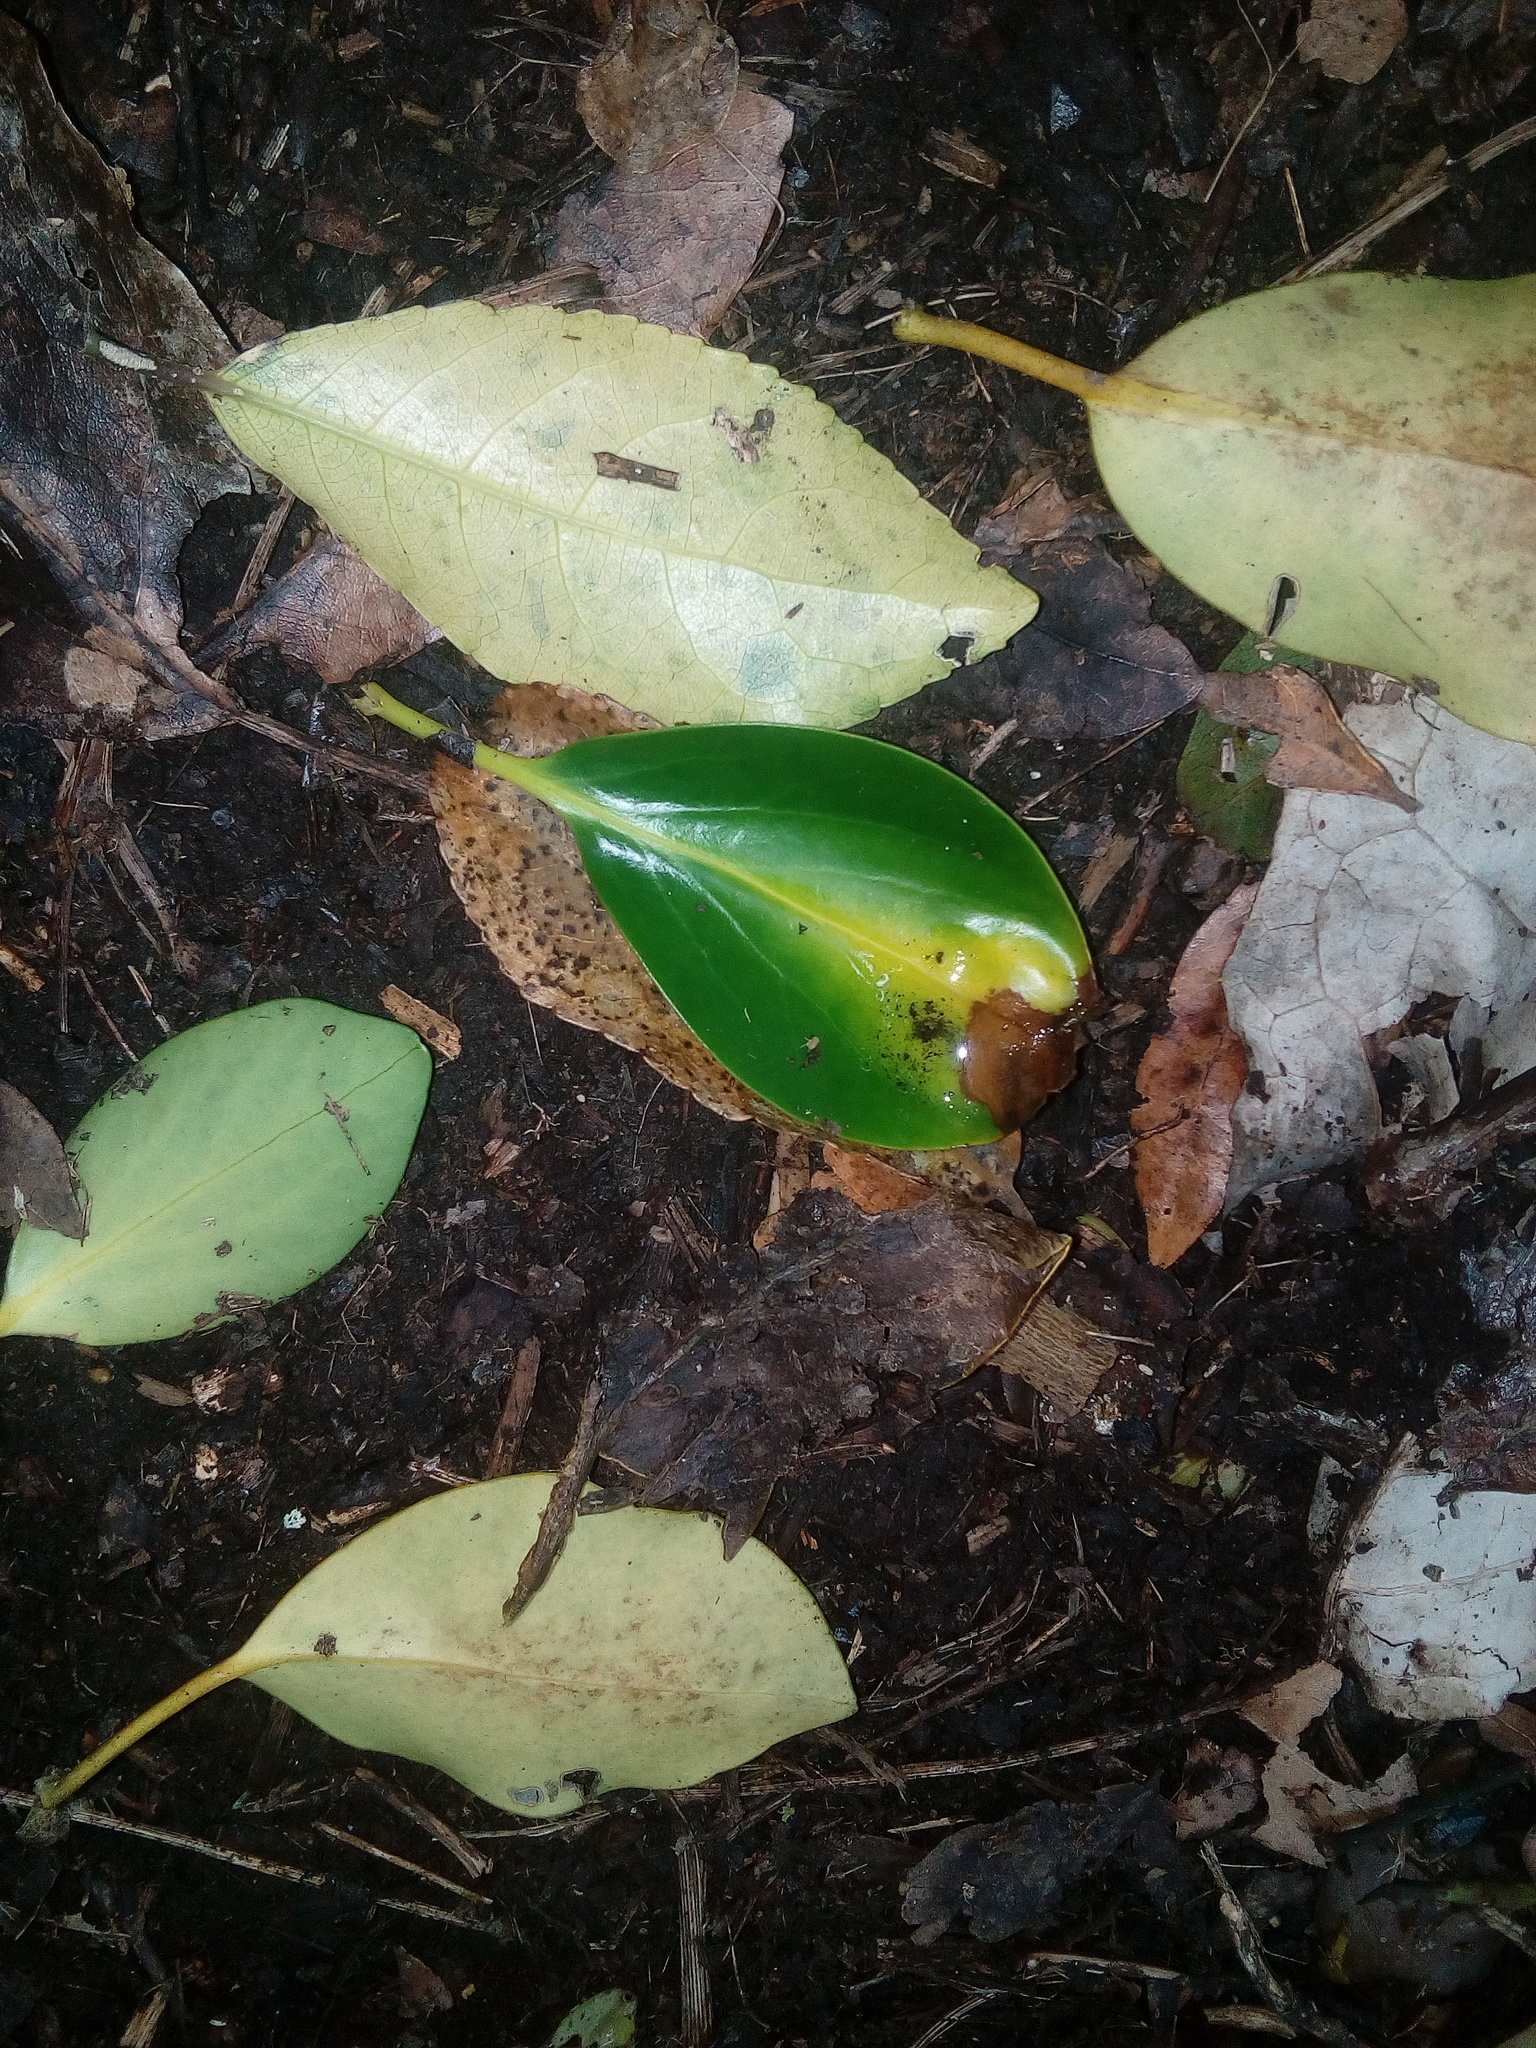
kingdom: Plantae
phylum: Tracheophyta
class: Magnoliopsida
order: Apiales
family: Griseliniaceae
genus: Griselinia
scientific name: Griselinia littoralis
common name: New zealand broadleaf
